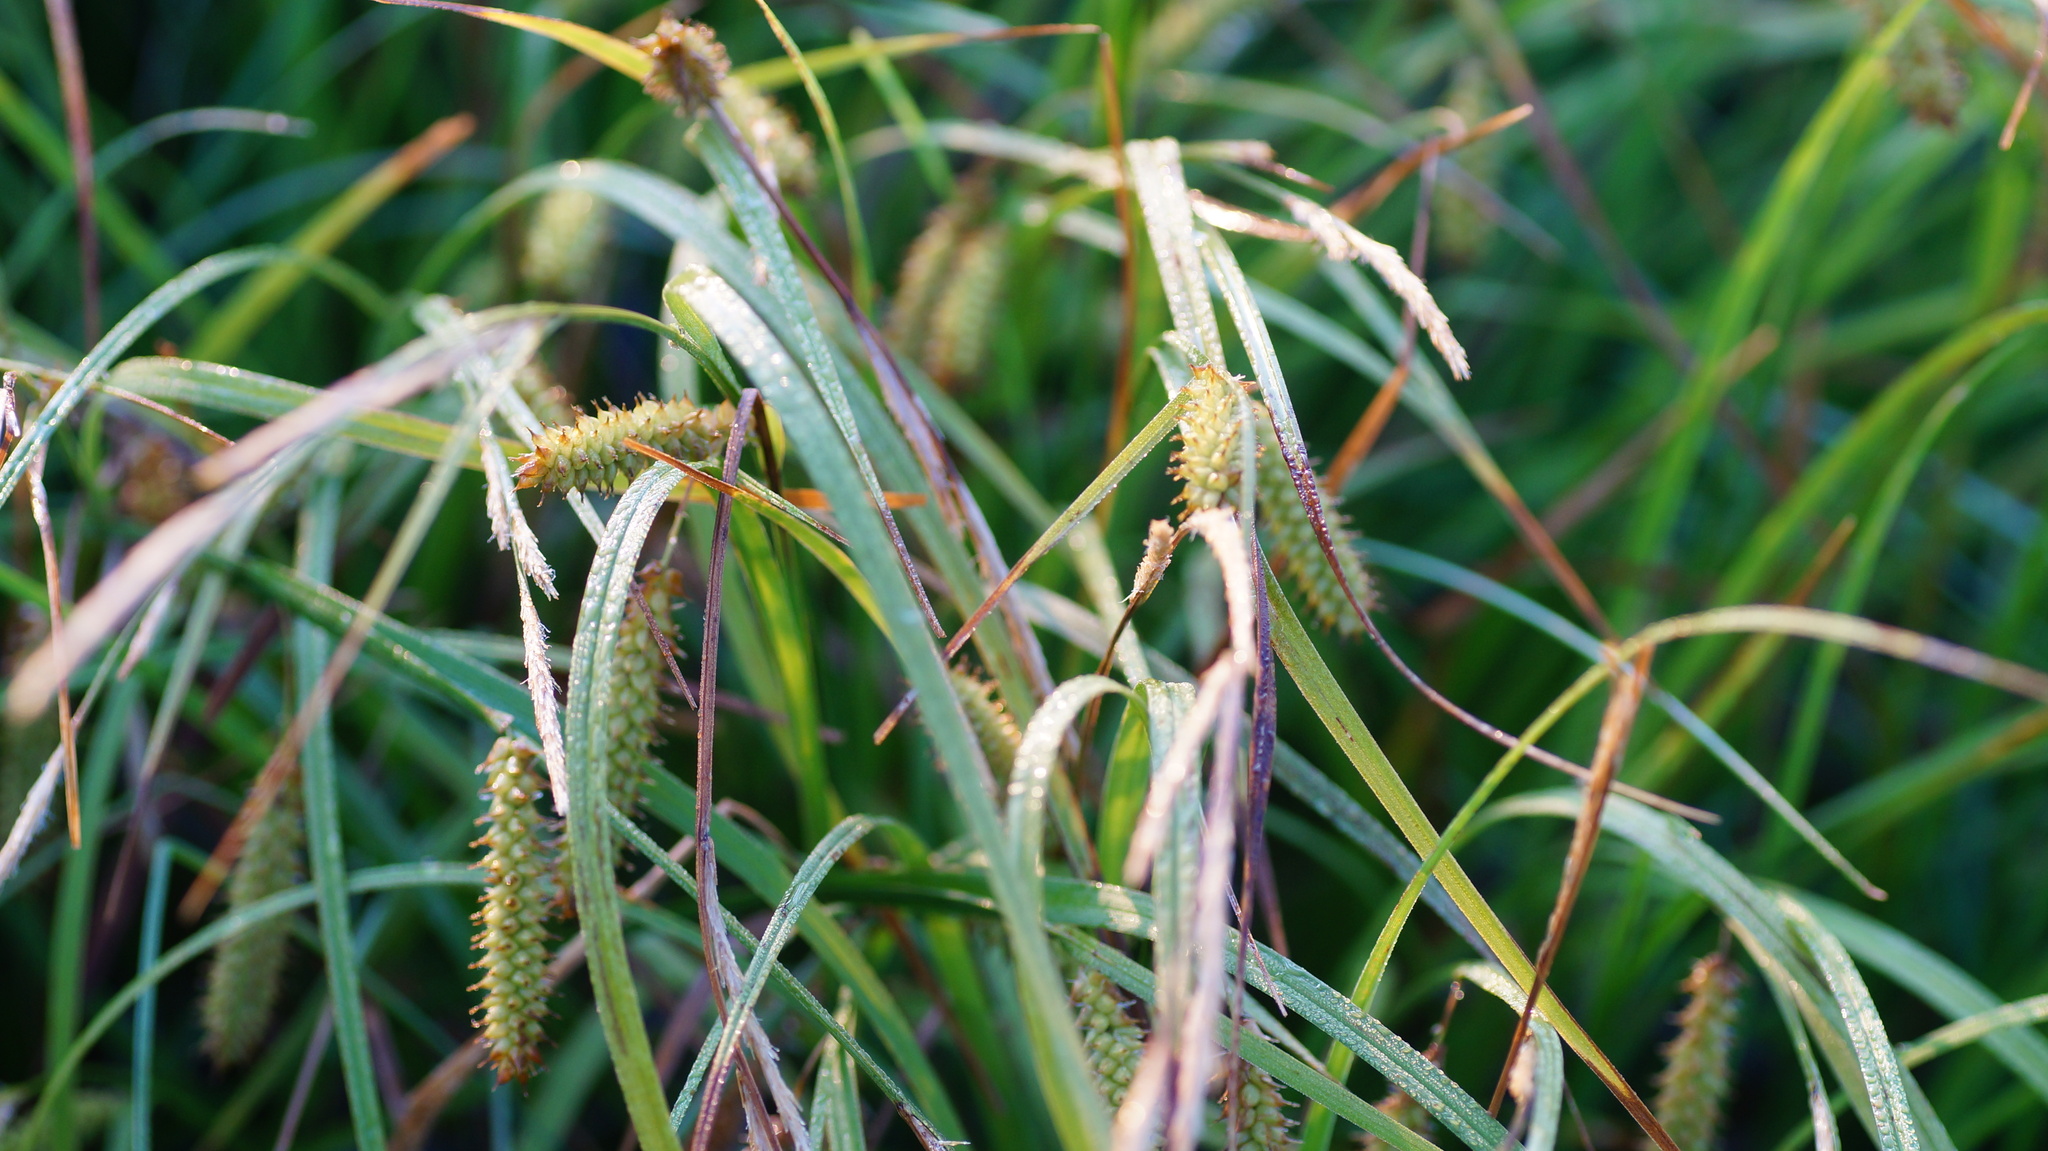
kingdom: Plantae
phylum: Tracheophyta
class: Liliopsida
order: Poales
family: Cyperaceae
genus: Carex
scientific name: Carex rostrata
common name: Bottle sedge
